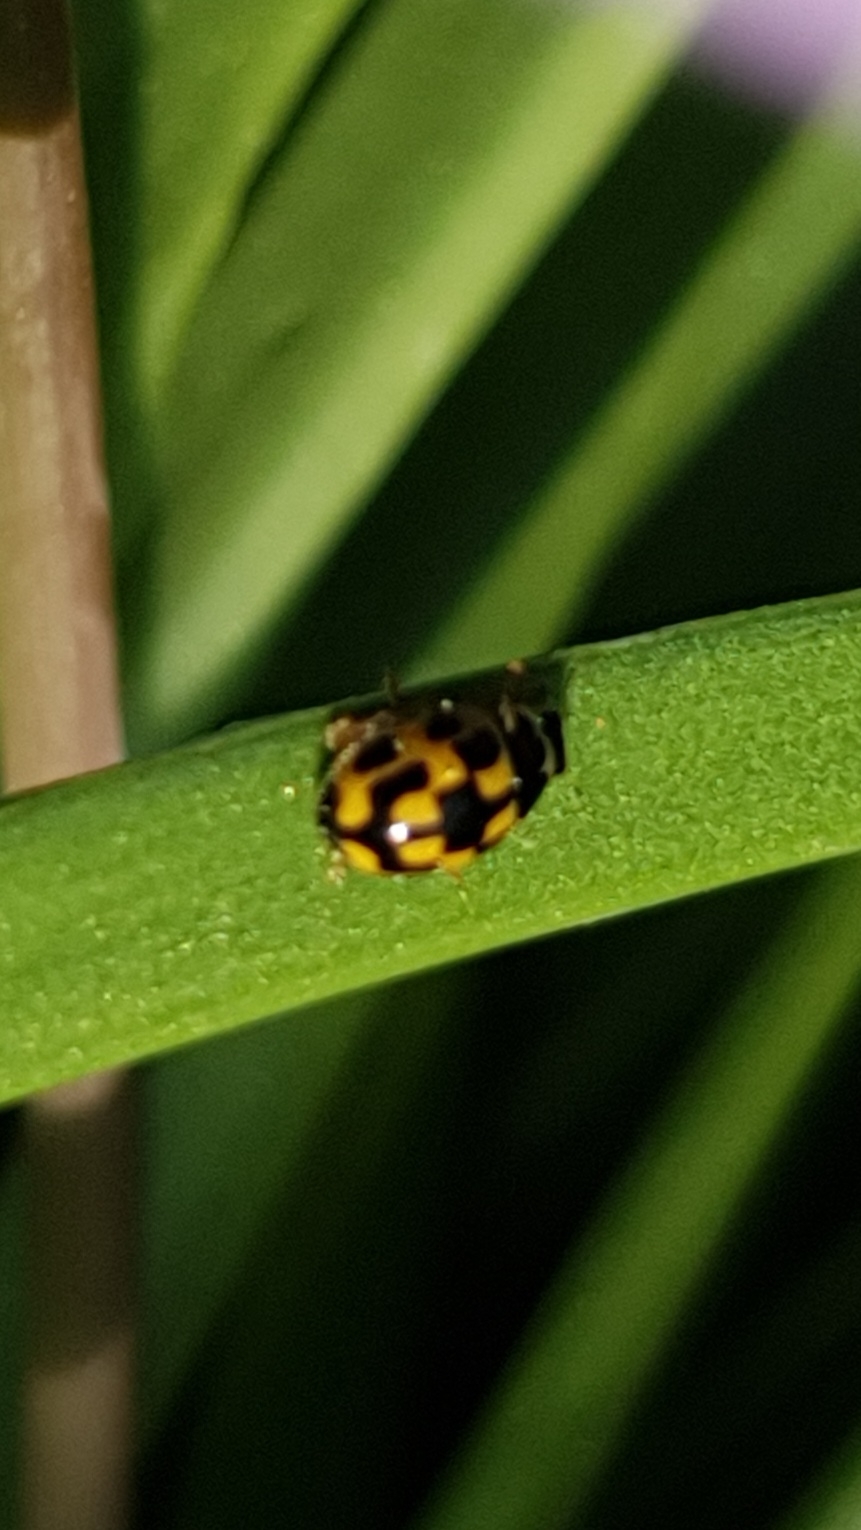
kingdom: Animalia
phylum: Arthropoda
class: Insecta
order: Coleoptera
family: Coccinellidae
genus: Propylaea
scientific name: Propylaea quatuordecimpunctata
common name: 14-spotted ladybird beetle
